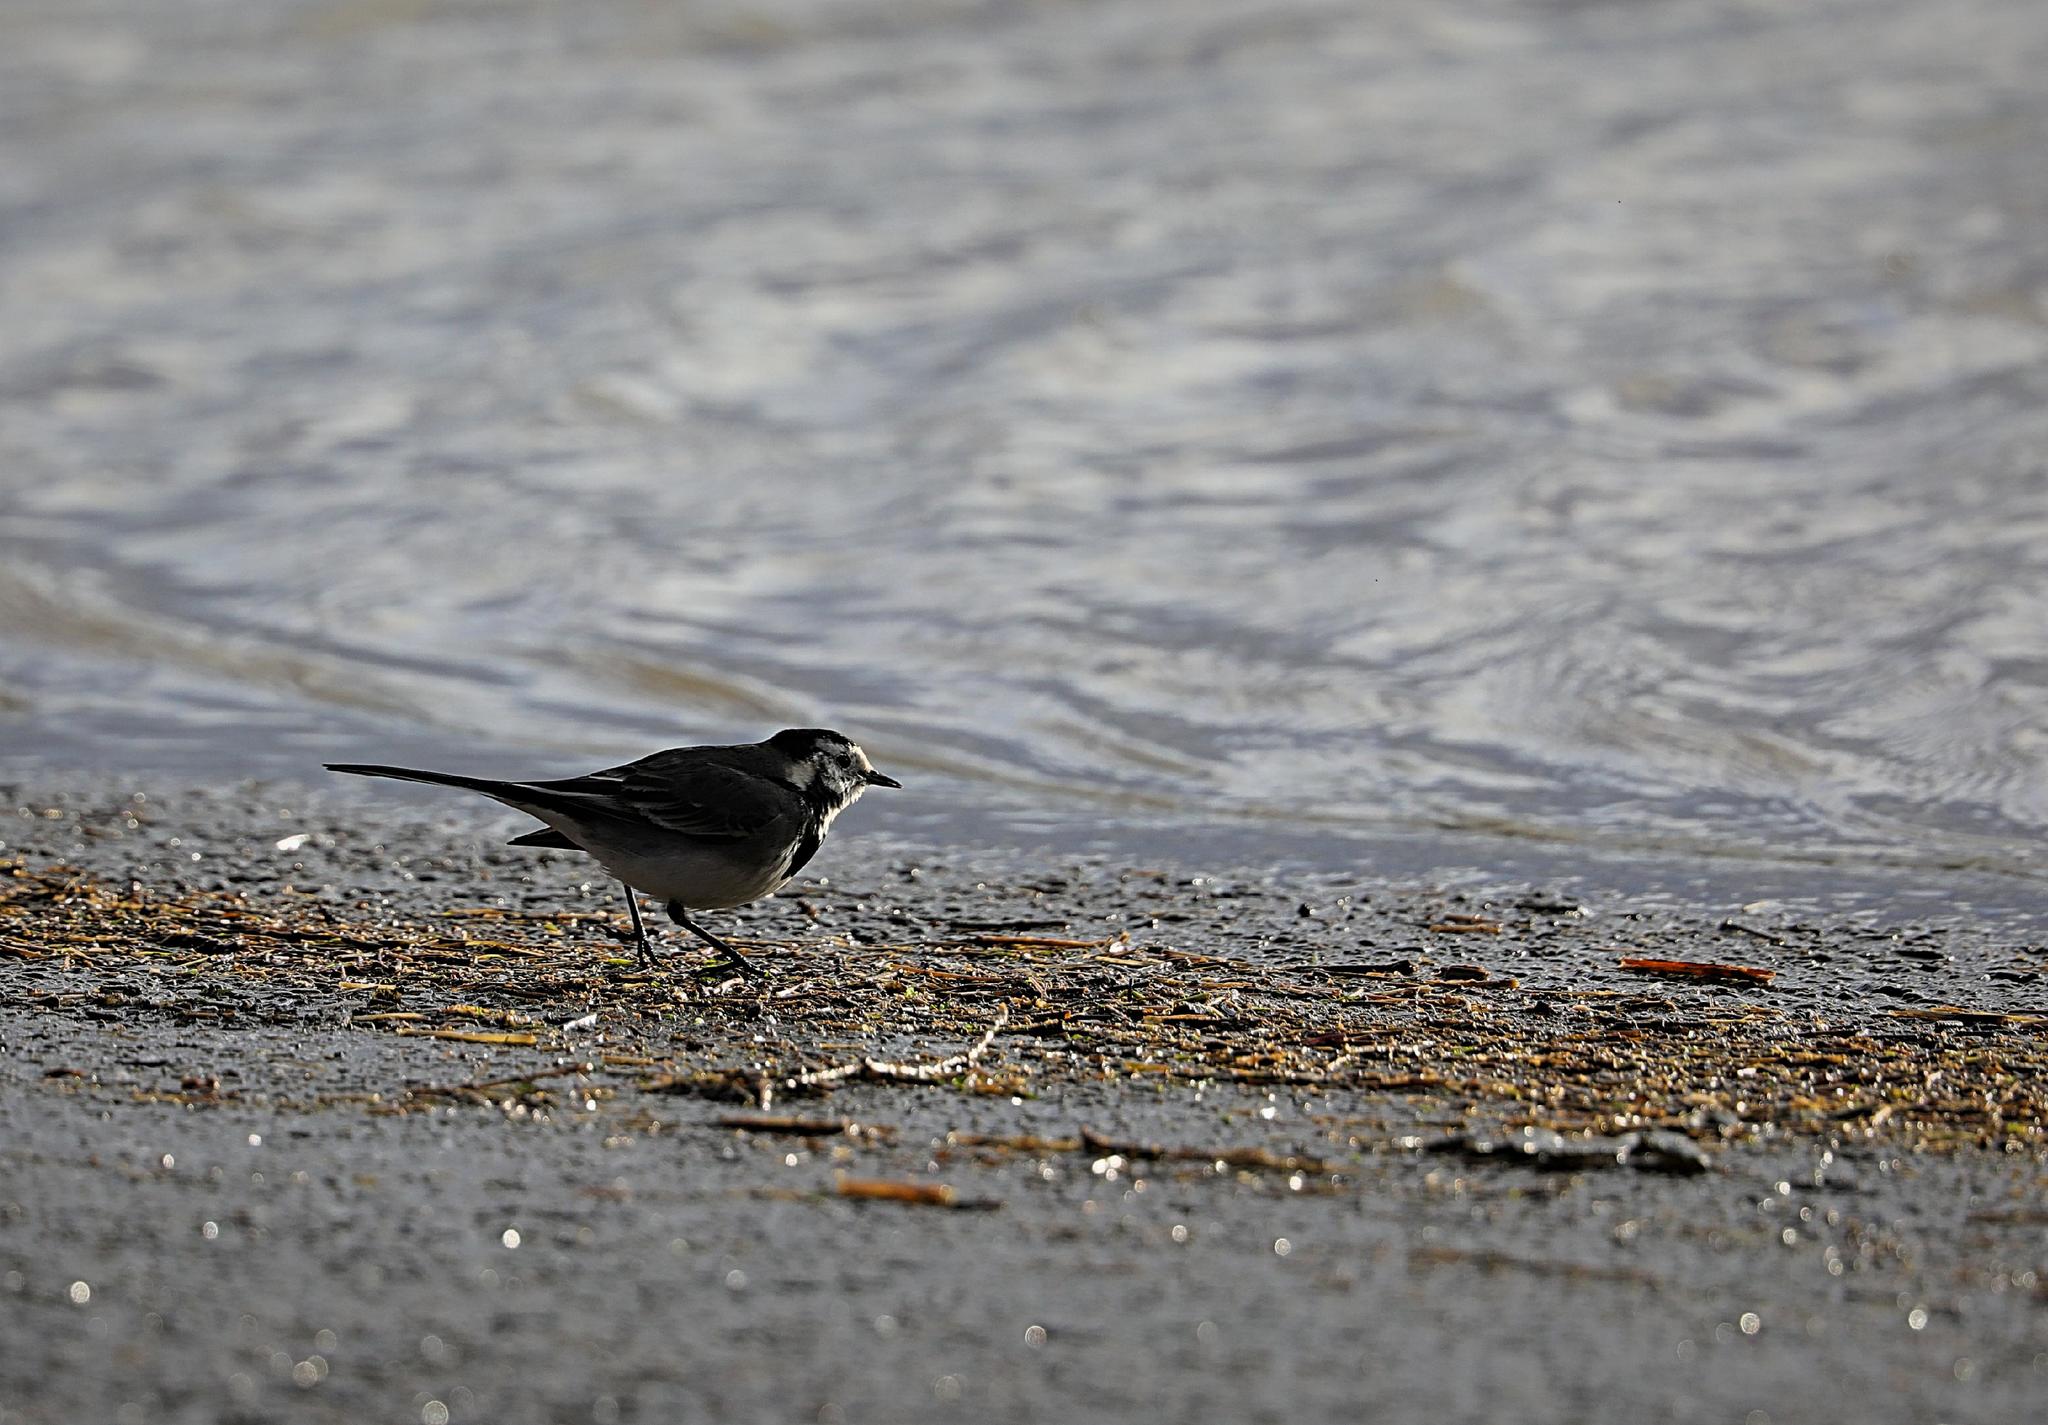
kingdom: Animalia
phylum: Chordata
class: Aves
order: Passeriformes
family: Motacillidae
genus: Motacilla
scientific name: Motacilla alba
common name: White wagtail
